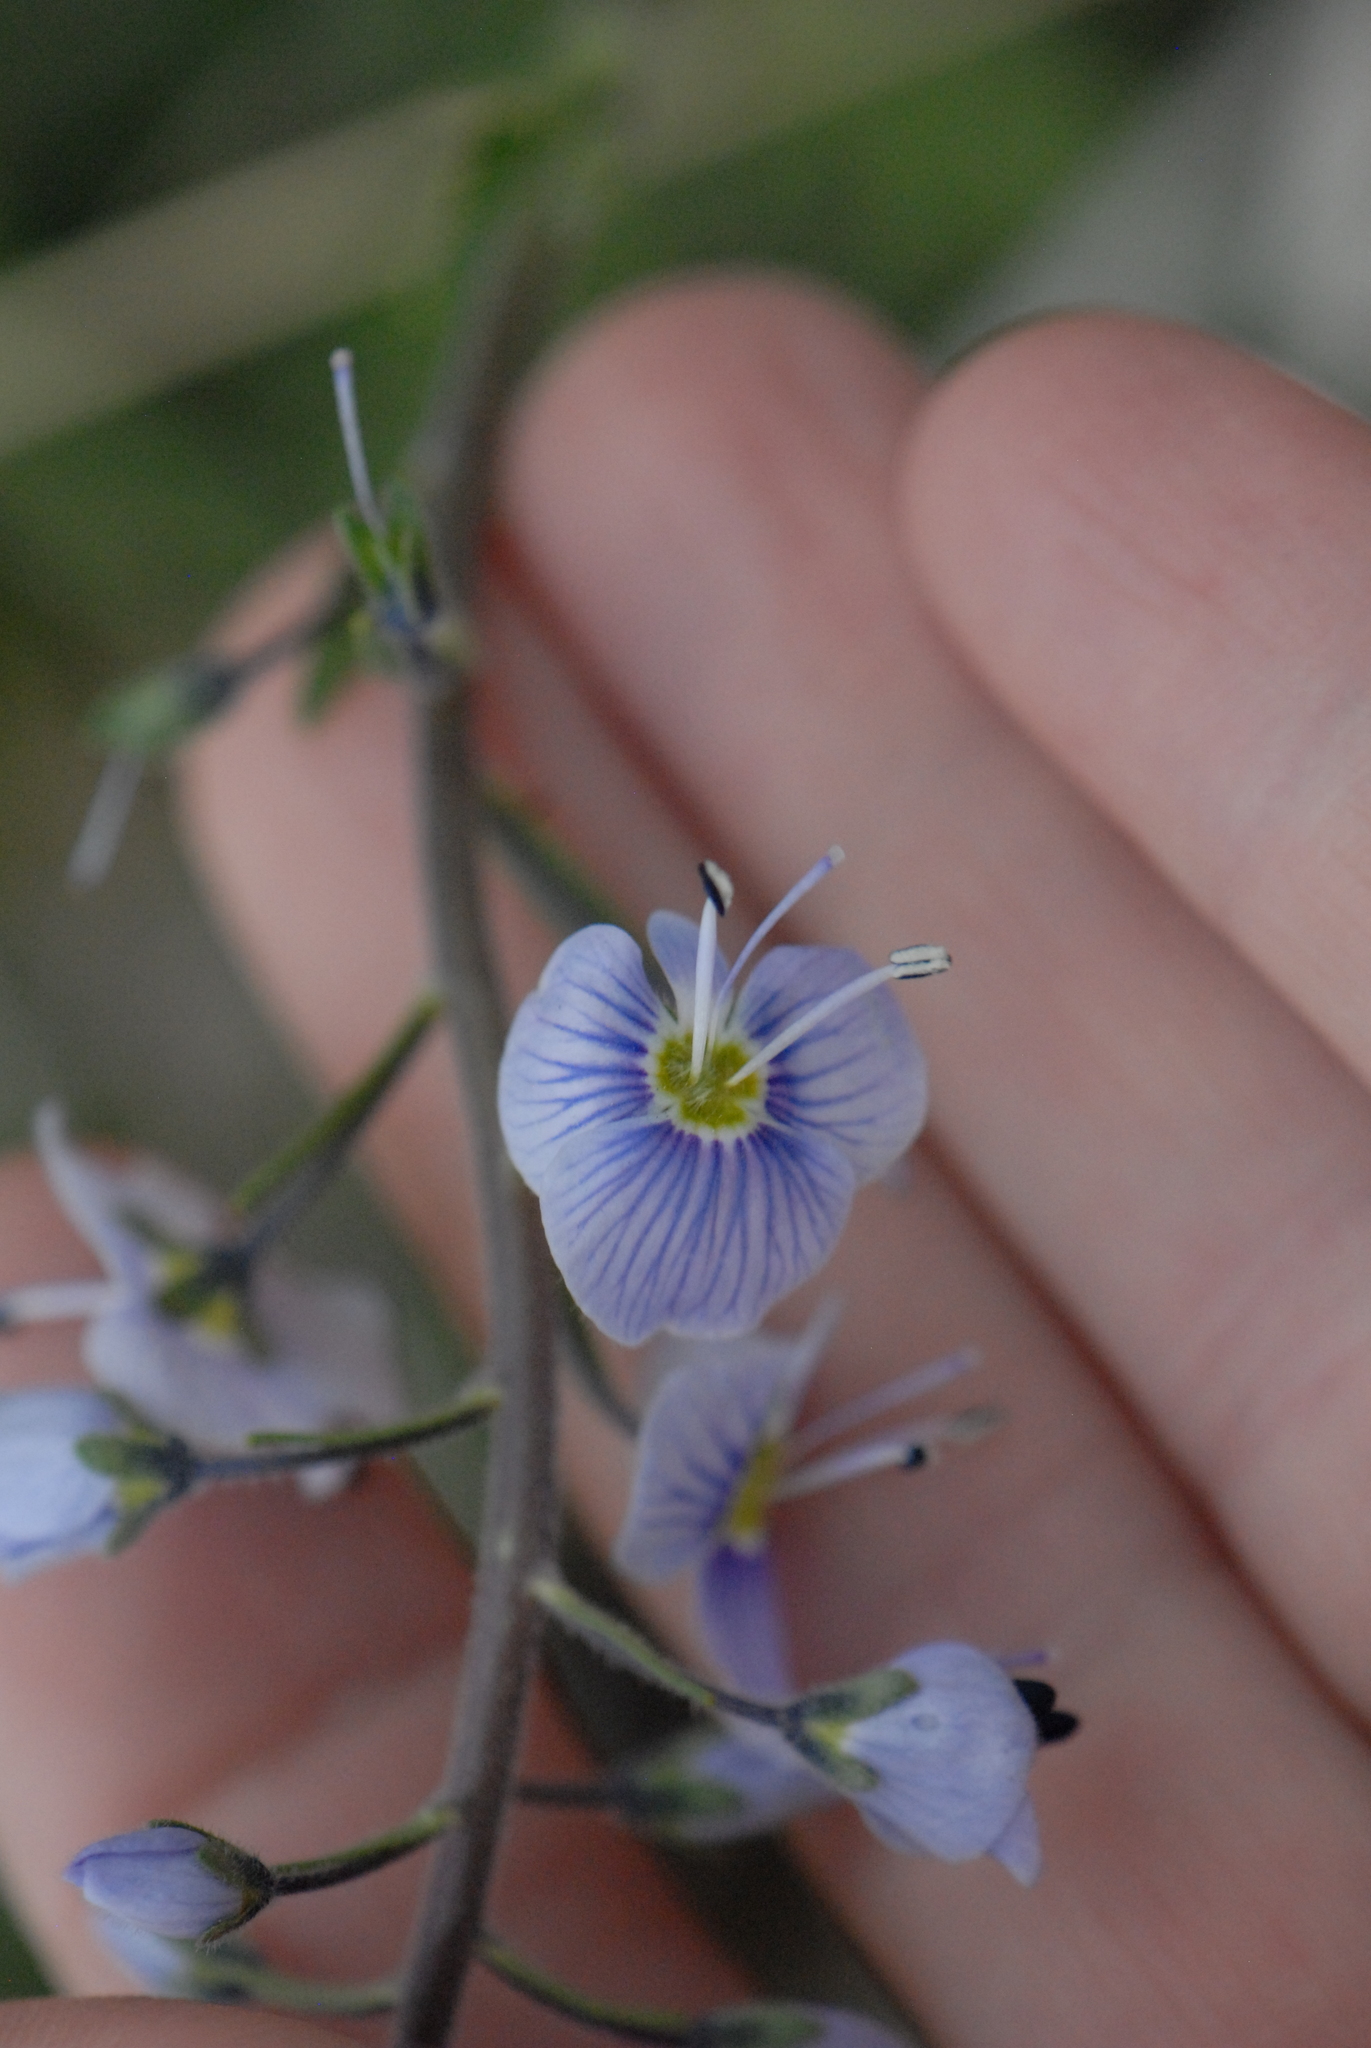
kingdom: Plantae
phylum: Tracheophyta
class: Magnoliopsida
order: Lamiales
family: Plantaginaceae
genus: Veronica
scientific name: Veronica gentianoides
